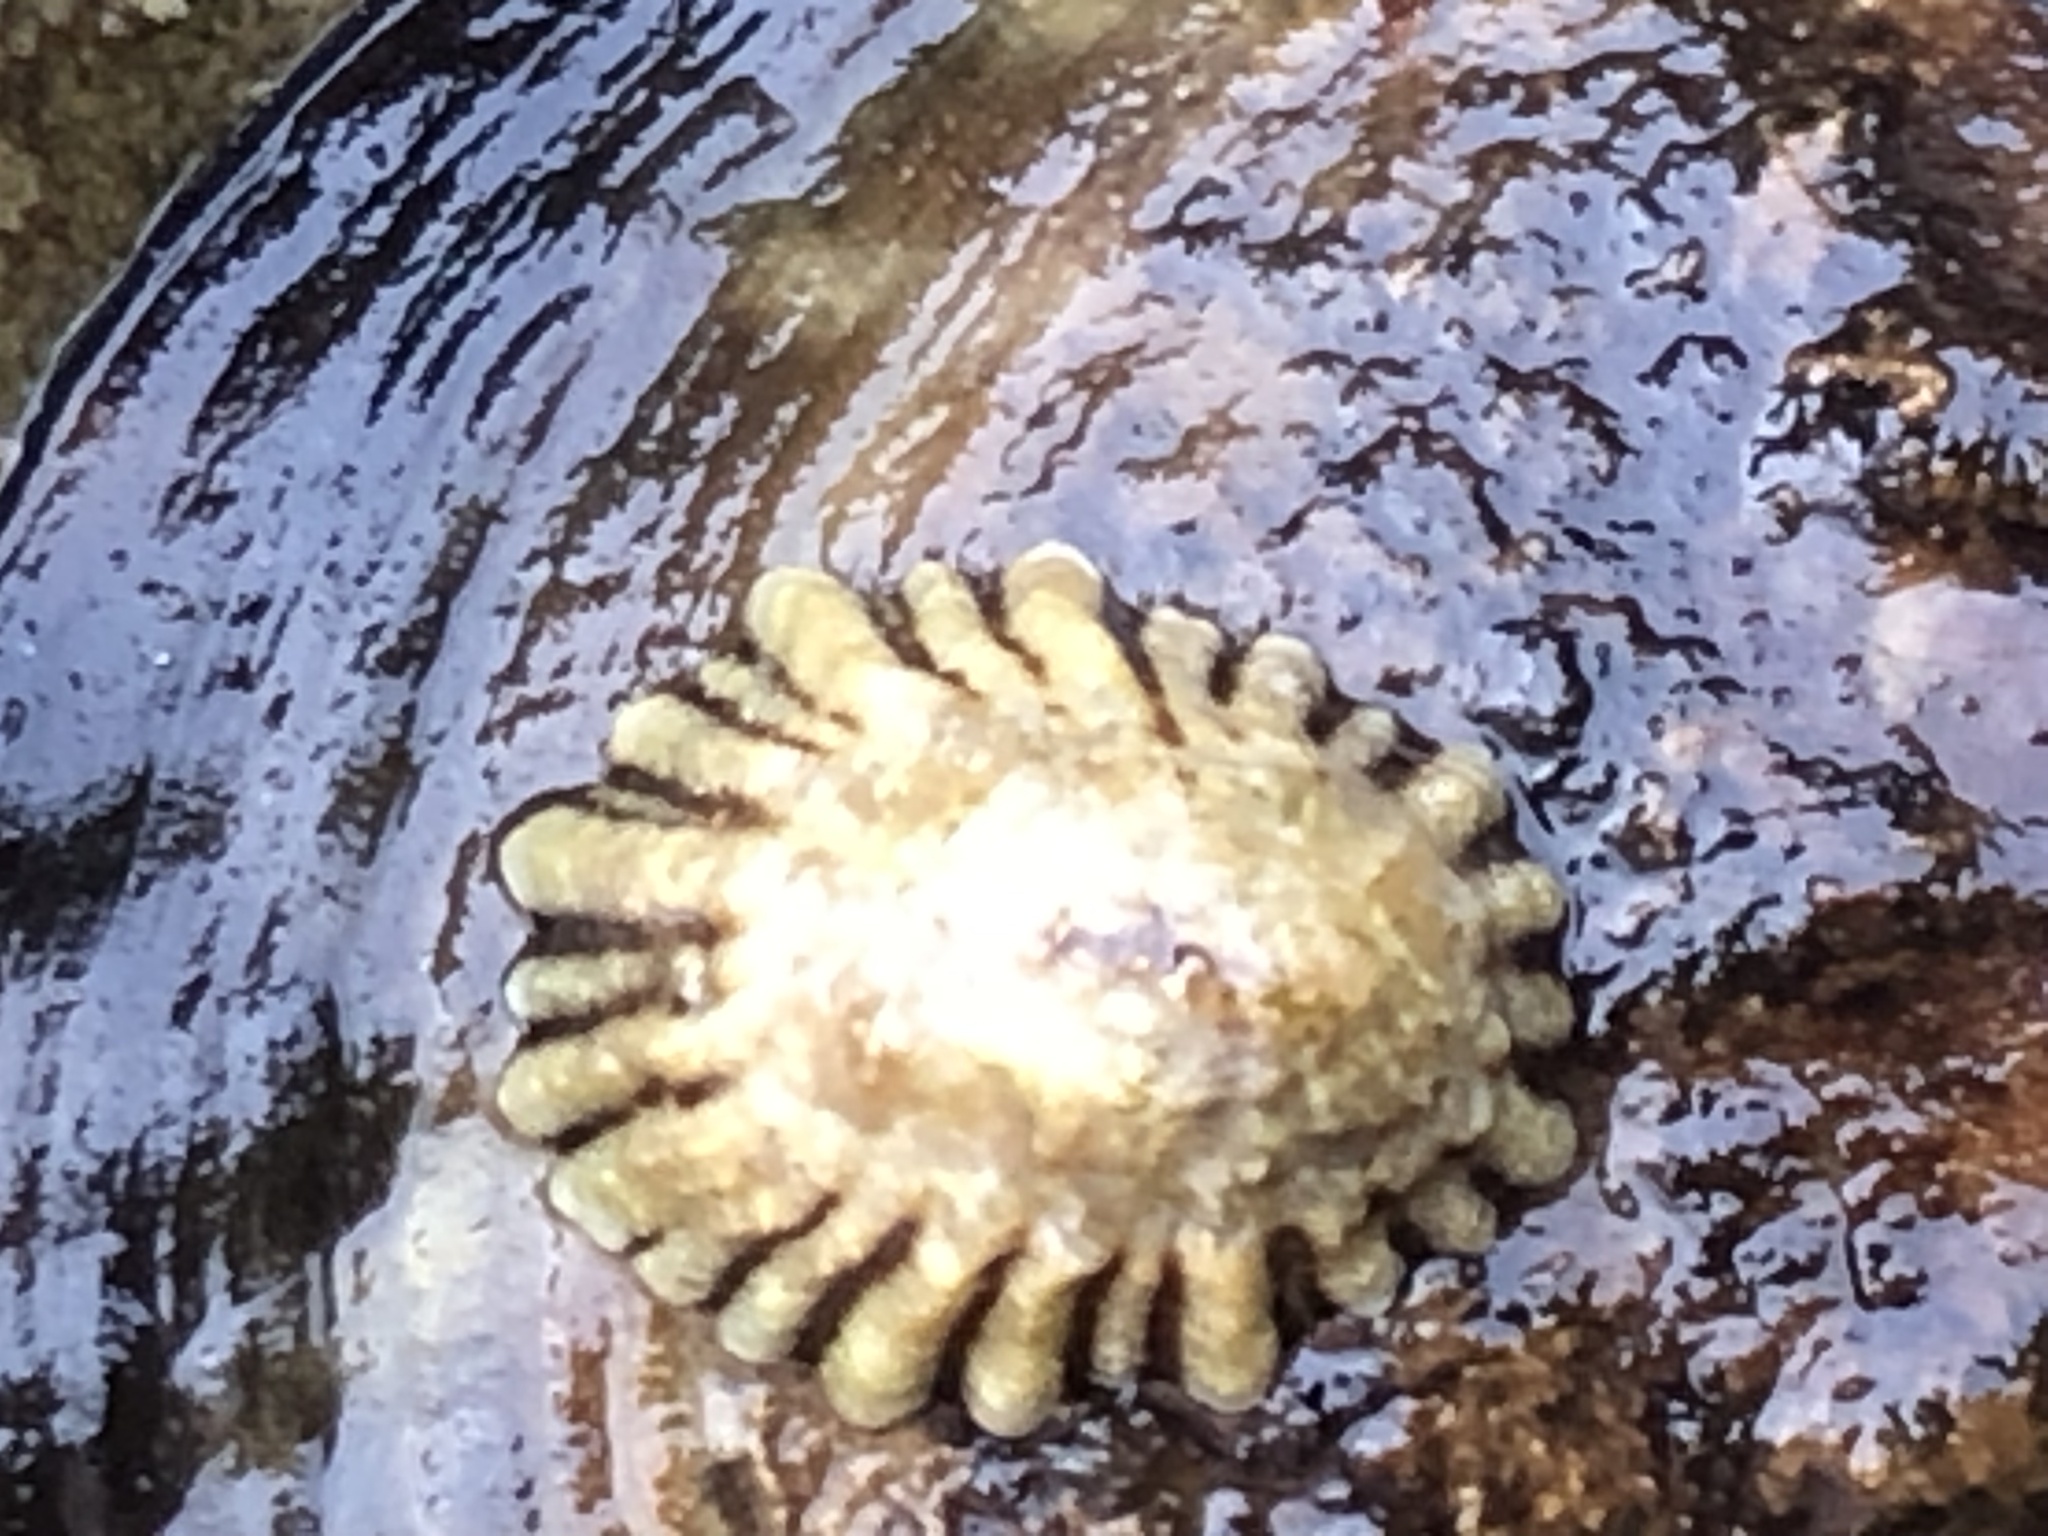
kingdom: Animalia
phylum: Mollusca
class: Gastropoda
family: Lottiidae
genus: Lottia
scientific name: Lottia scabra
